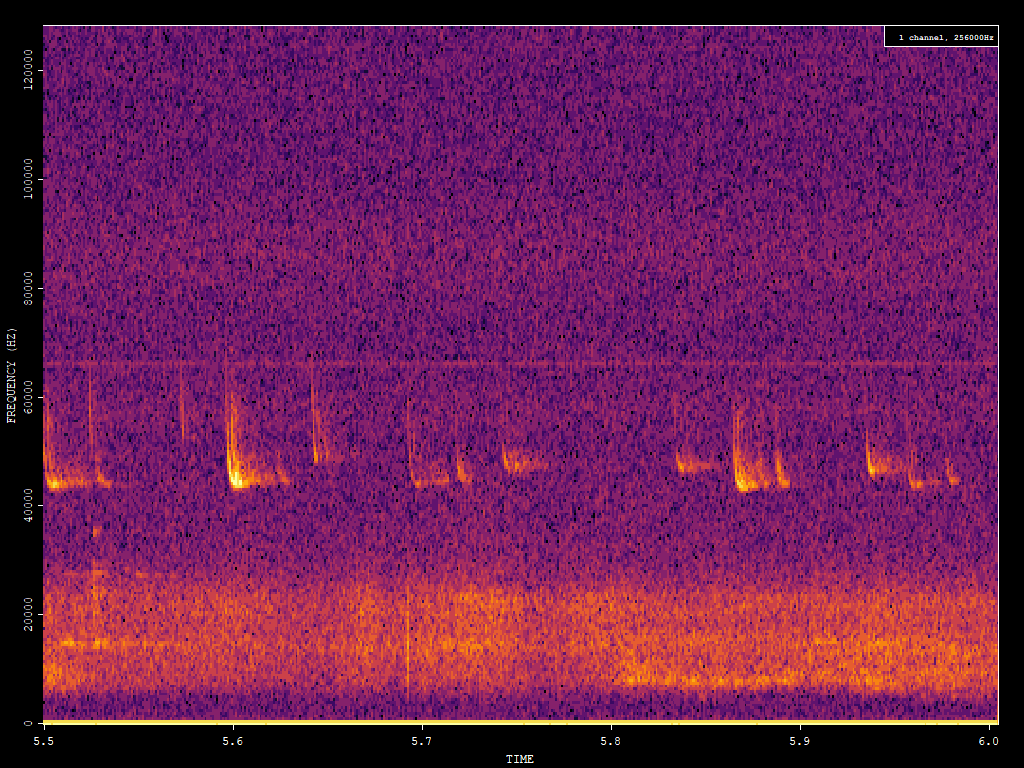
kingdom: Animalia
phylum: Chordata
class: Mammalia
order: Chiroptera
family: Vespertilionidae
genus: Pipistrellus
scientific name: Pipistrellus pipistrellus
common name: Common pipistrelle
